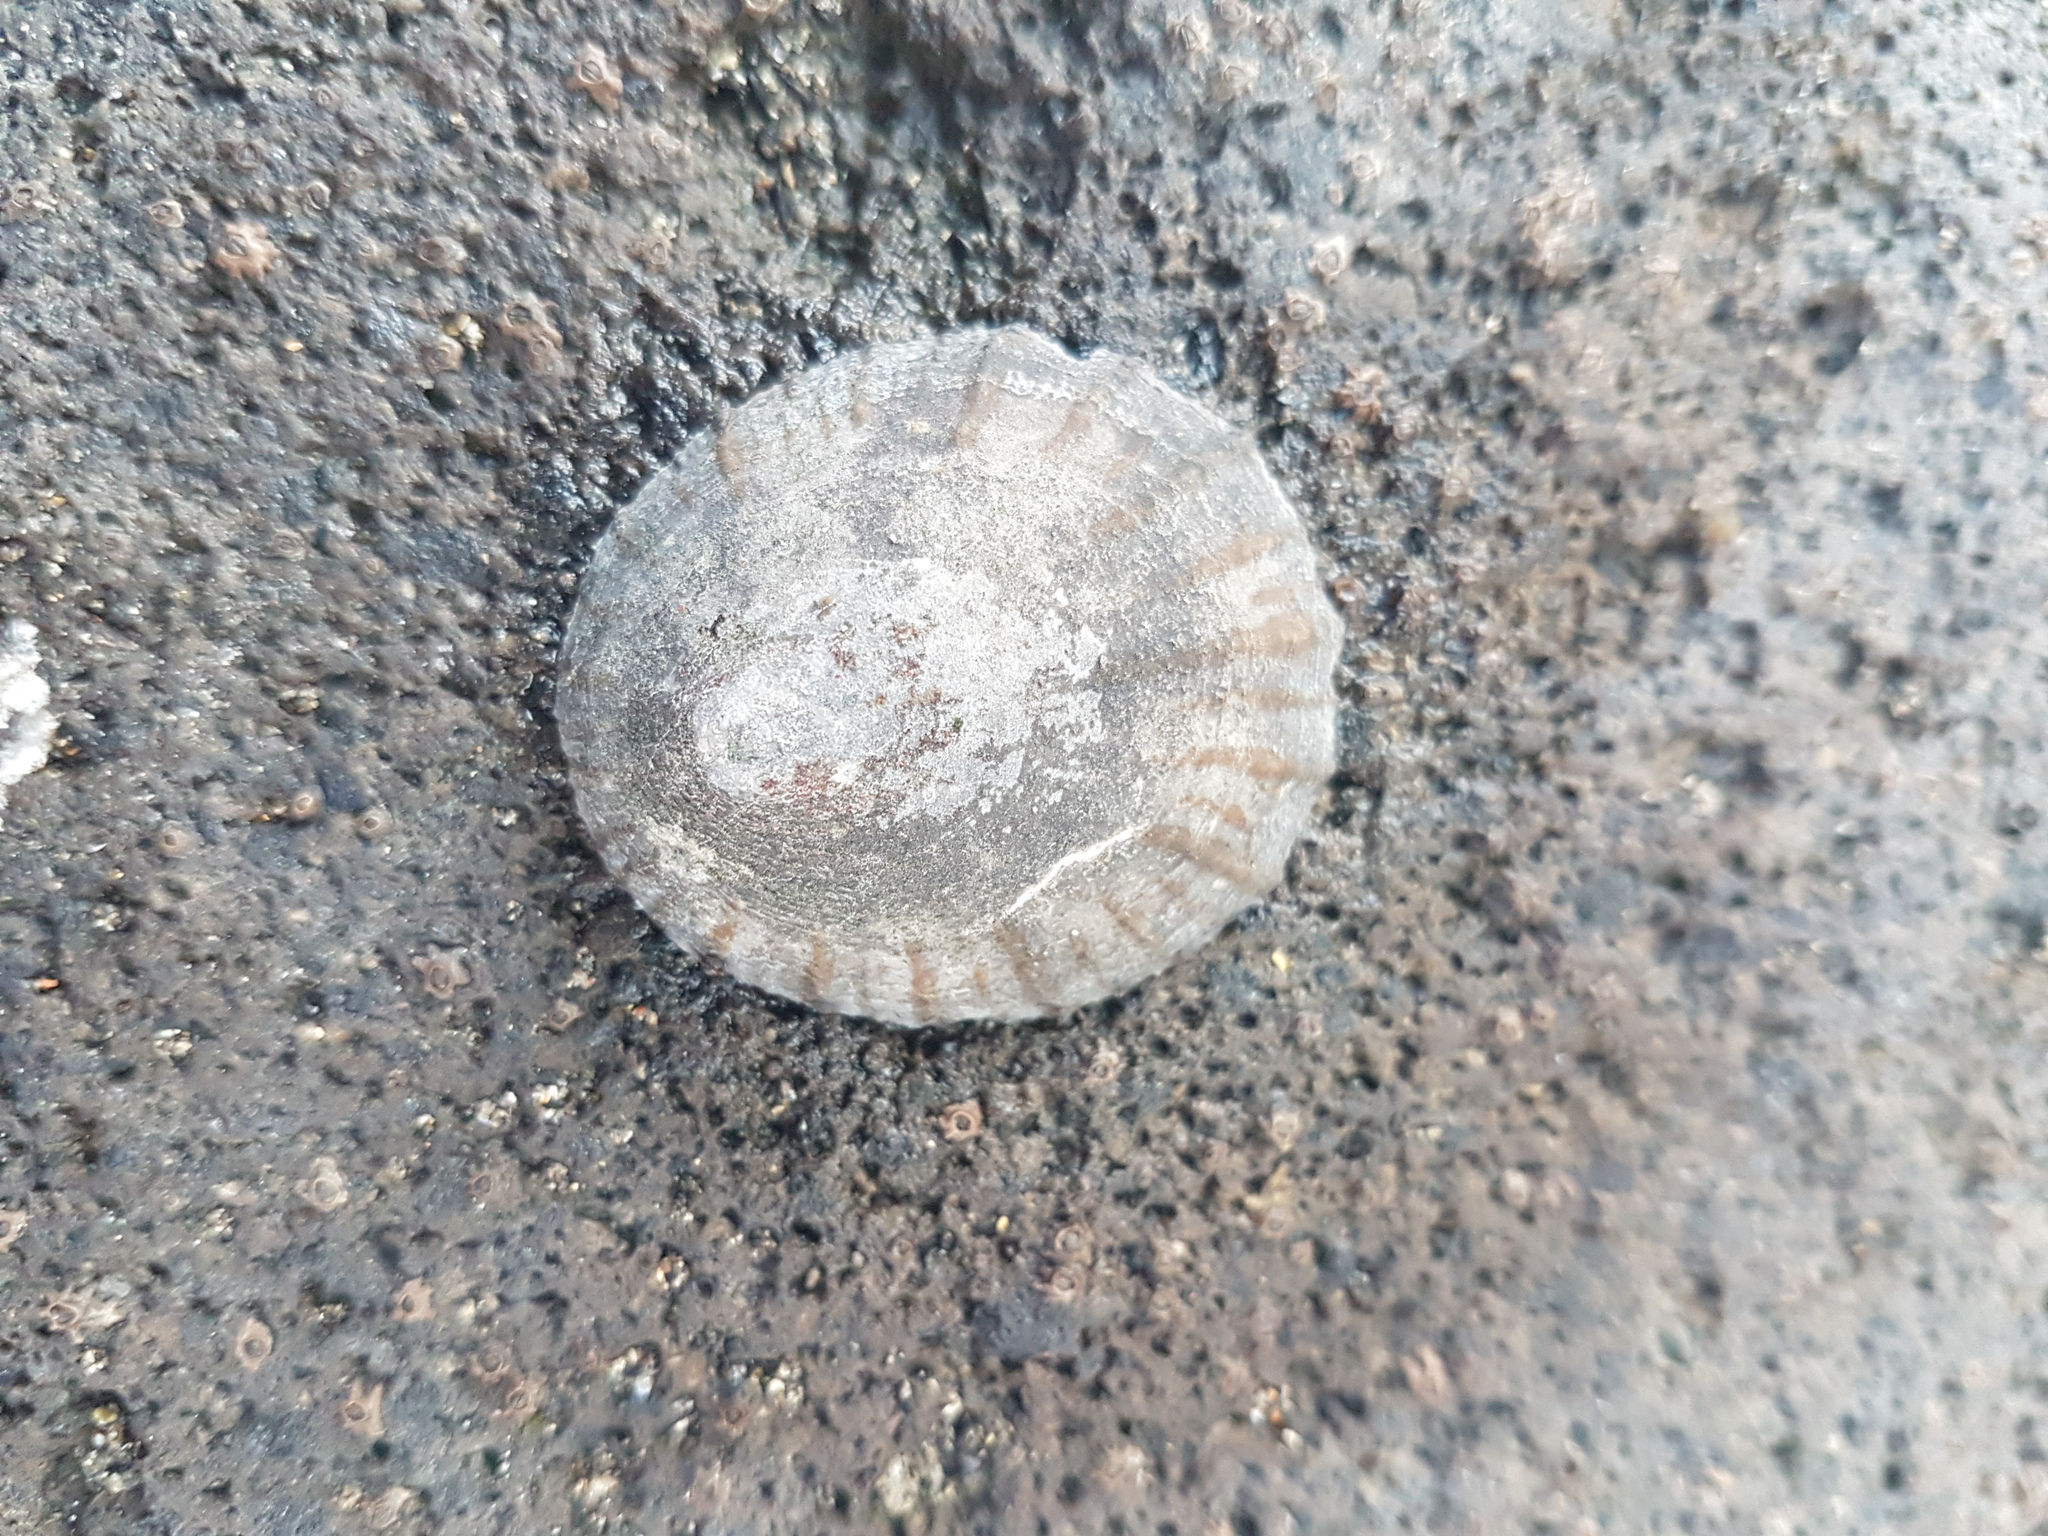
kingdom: Animalia
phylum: Mollusca
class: Gastropoda
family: Nacellidae
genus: Cellana
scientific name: Cellana radians
